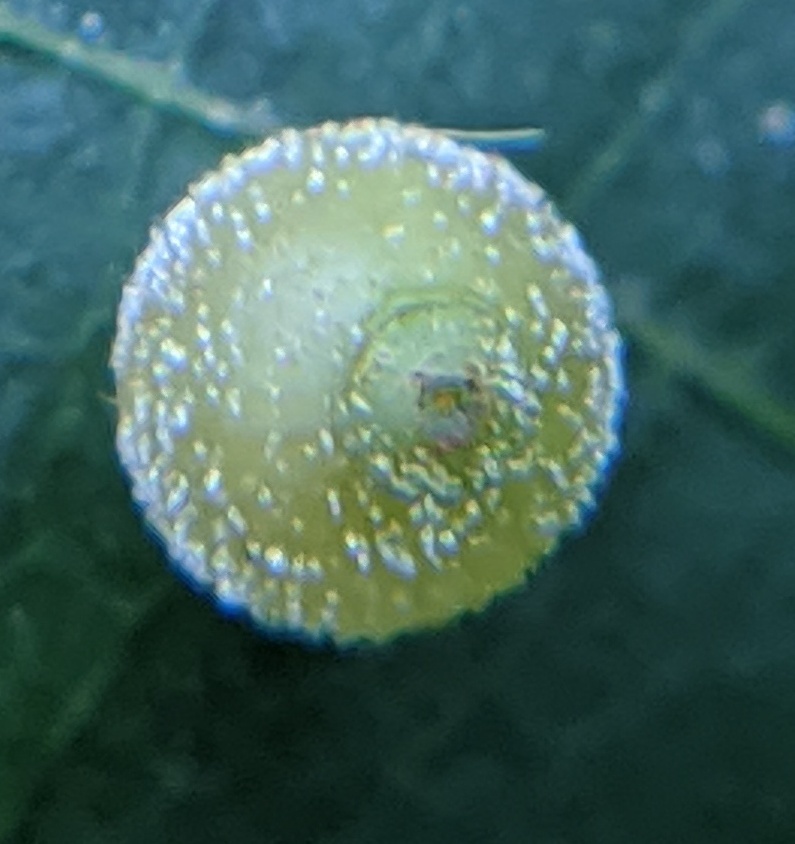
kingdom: Animalia
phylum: Arthropoda
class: Insecta
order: Diptera
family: Cecidomyiidae
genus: Caryomyia
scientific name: Caryomyia viscidolium
